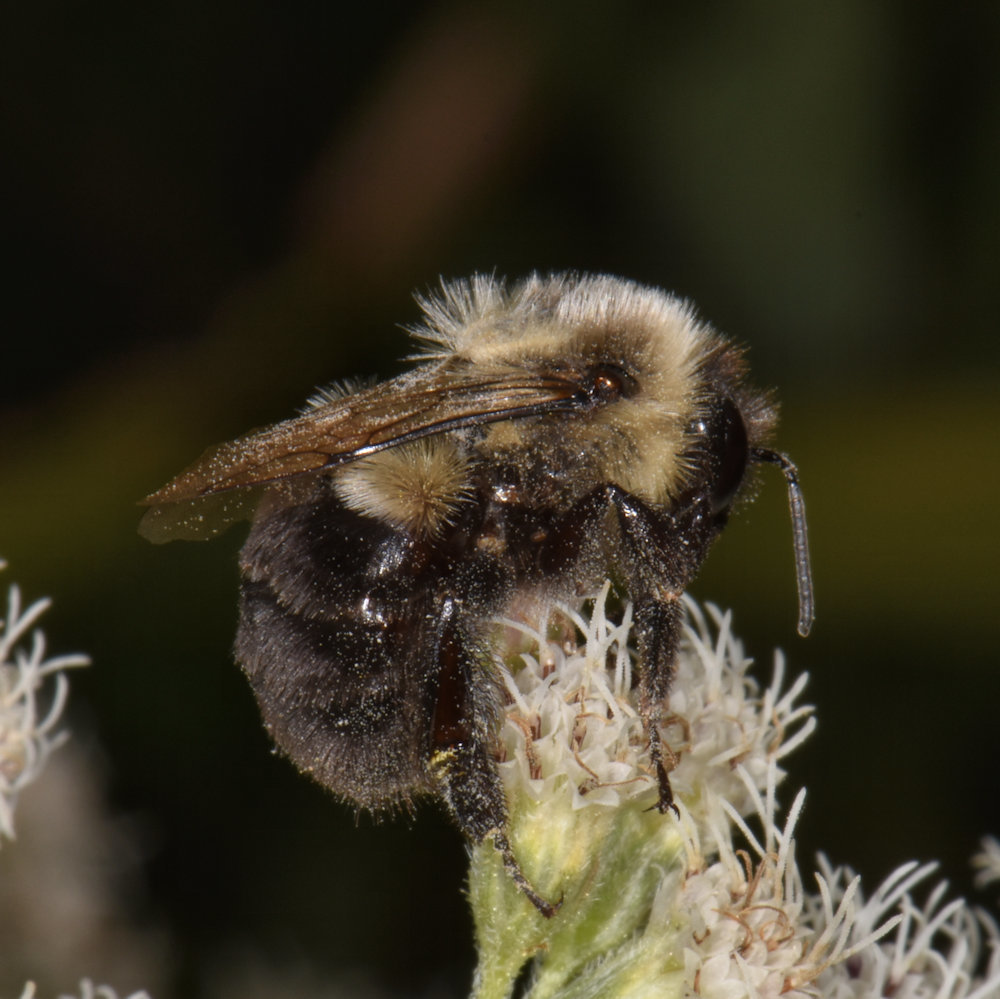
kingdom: Animalia
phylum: Arthropoda
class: Insecta
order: Hymenoptera
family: Apidae
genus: Bombus
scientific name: Bombus impatiens
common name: Common eastern bumble bee
